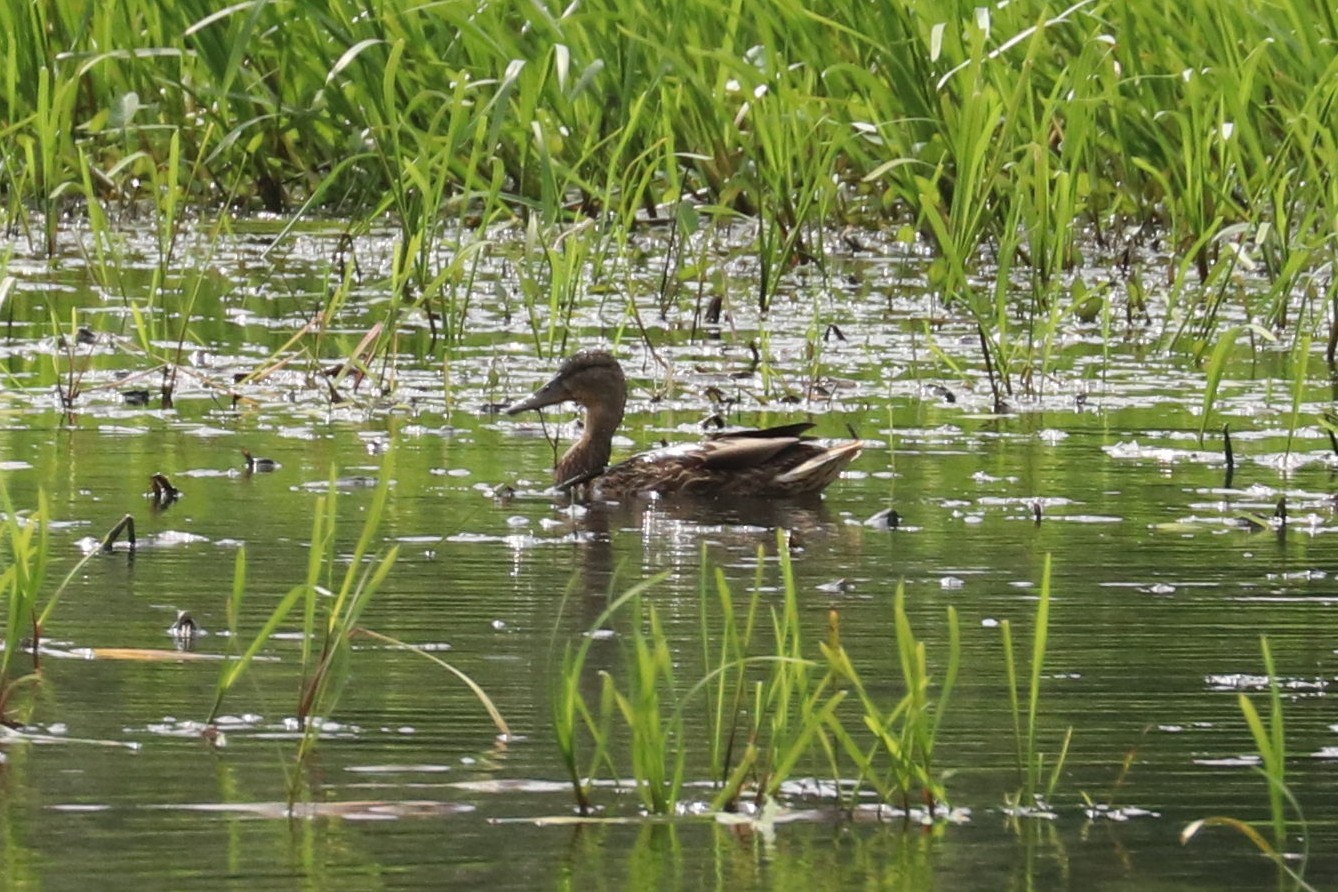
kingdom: Animalia
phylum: Chordata
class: Aves
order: Anseriformes
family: Anatidae
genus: Anas
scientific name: Anas platyrhynchos
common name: Mallard
